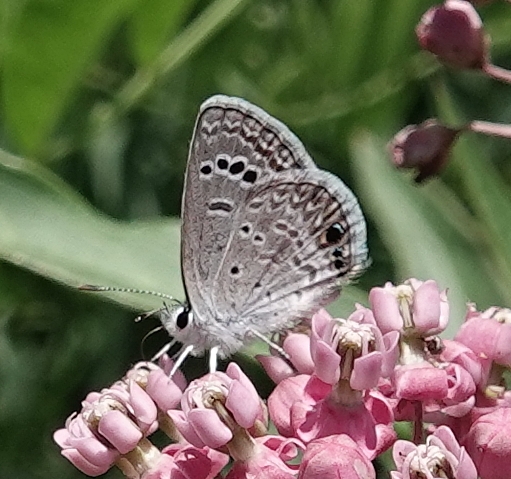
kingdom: Animalia
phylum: Arthropoda
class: Insecta
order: Lepidoptera
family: Lycaenidae
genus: Echinargus
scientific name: Echinargus isola
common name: Reakirt's blue
